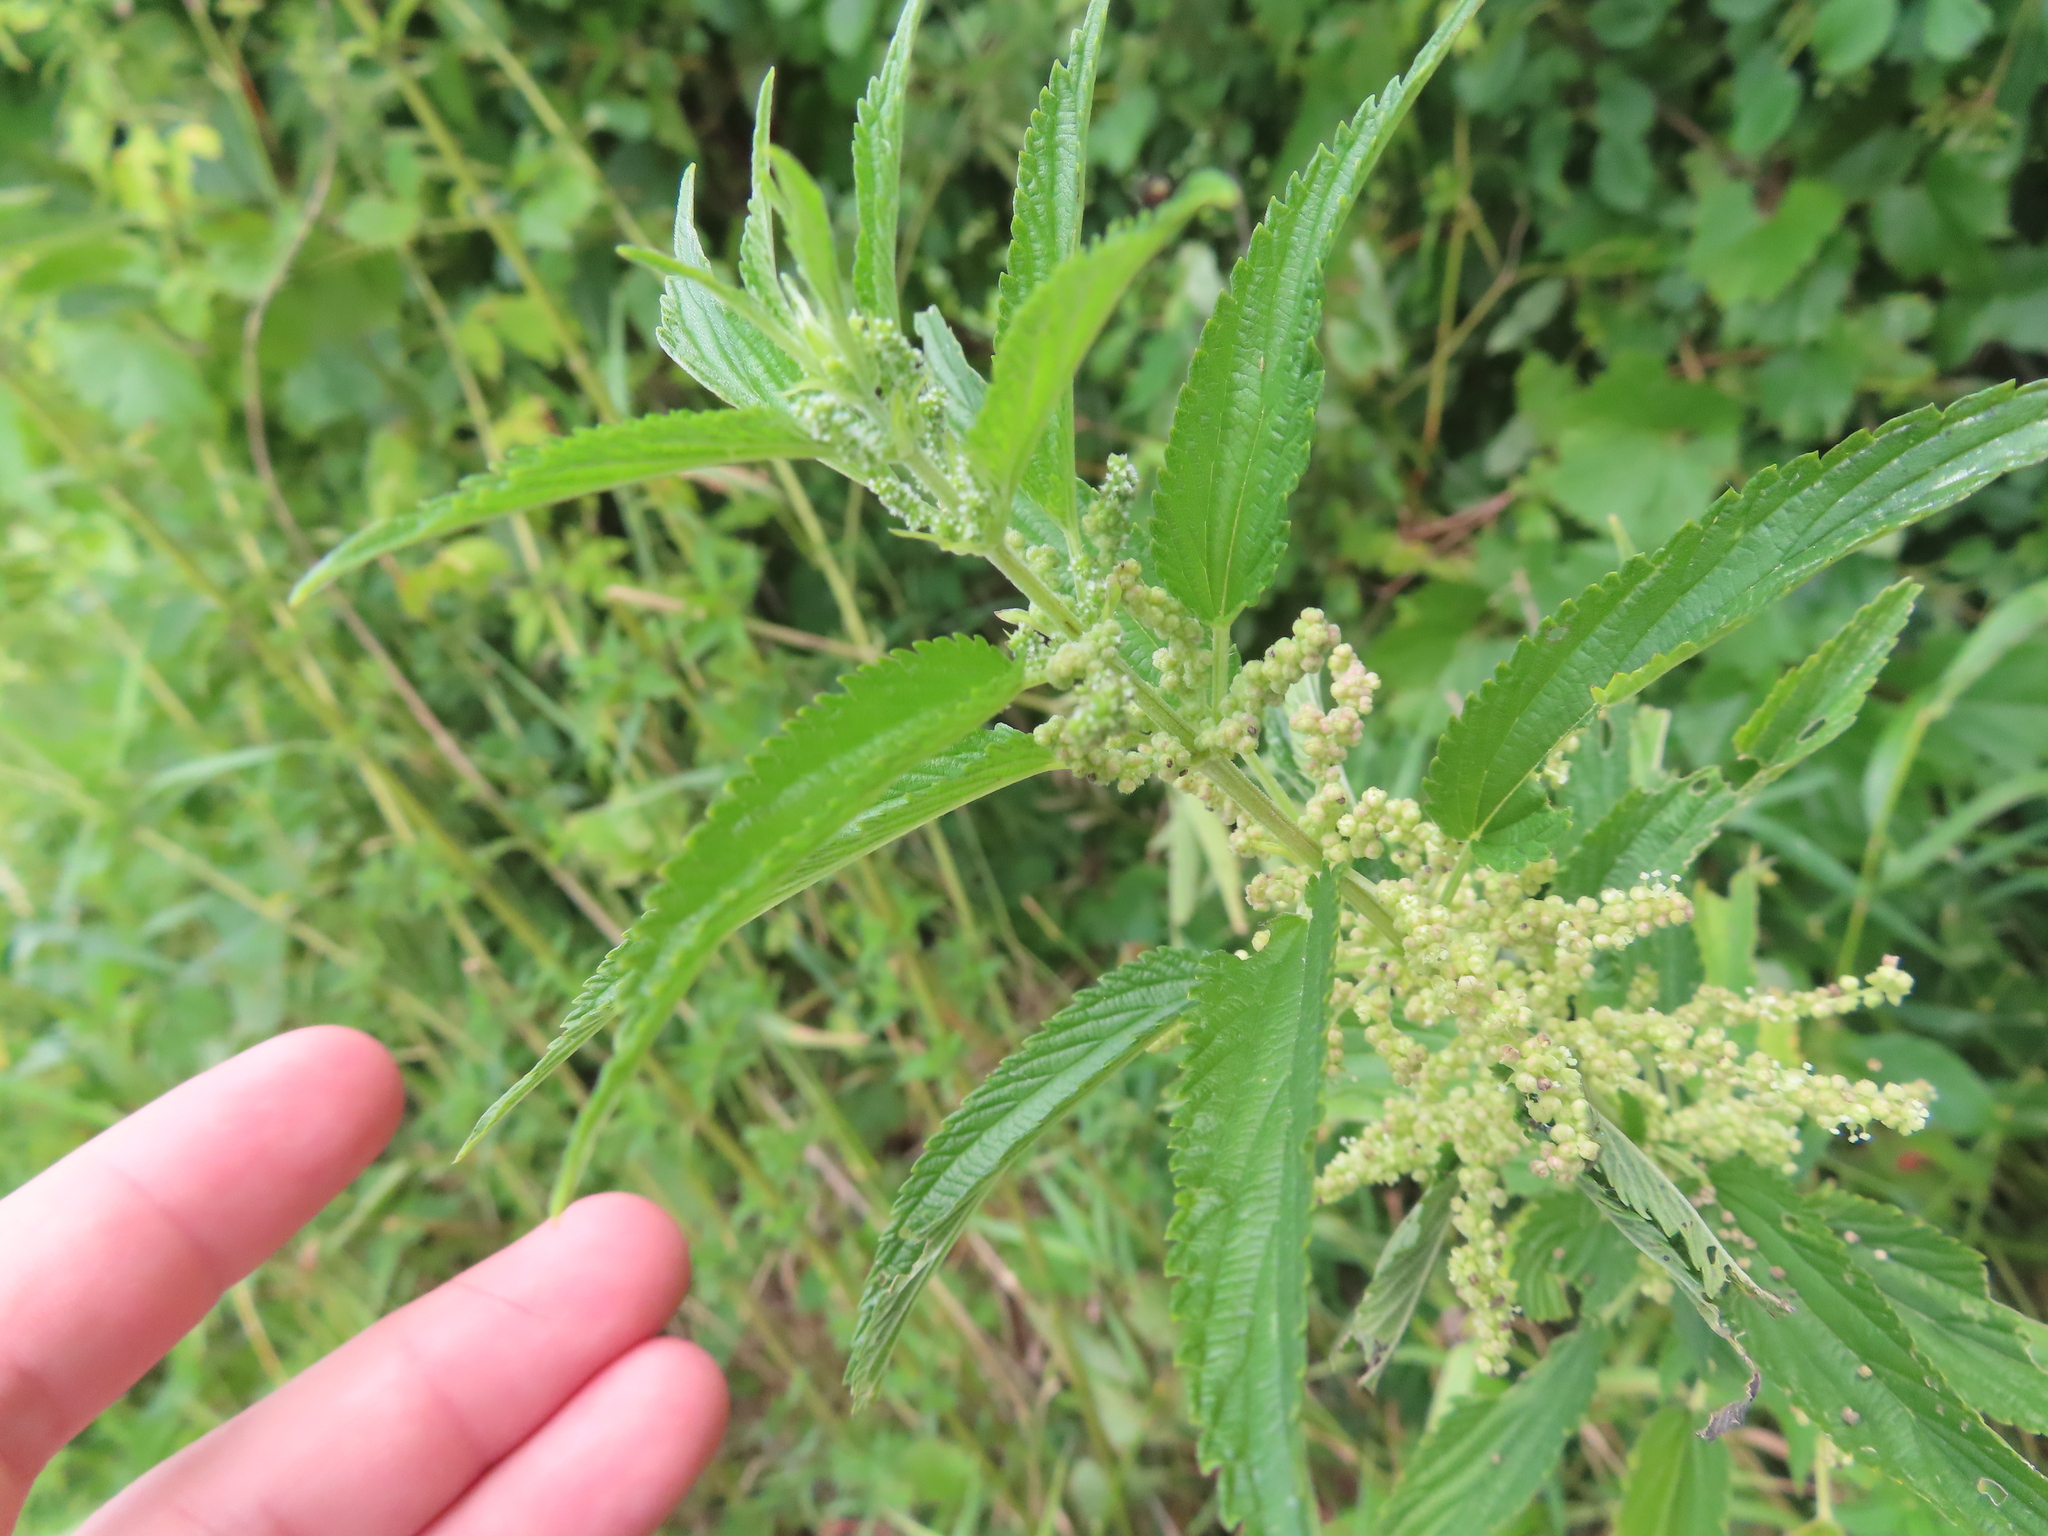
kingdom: Plantae
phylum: Tracheophyta
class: Magnoliopsida
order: Rosales
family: Urticaceae
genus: Urtica
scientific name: Urtica gracilis
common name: Slender stinging nettle
